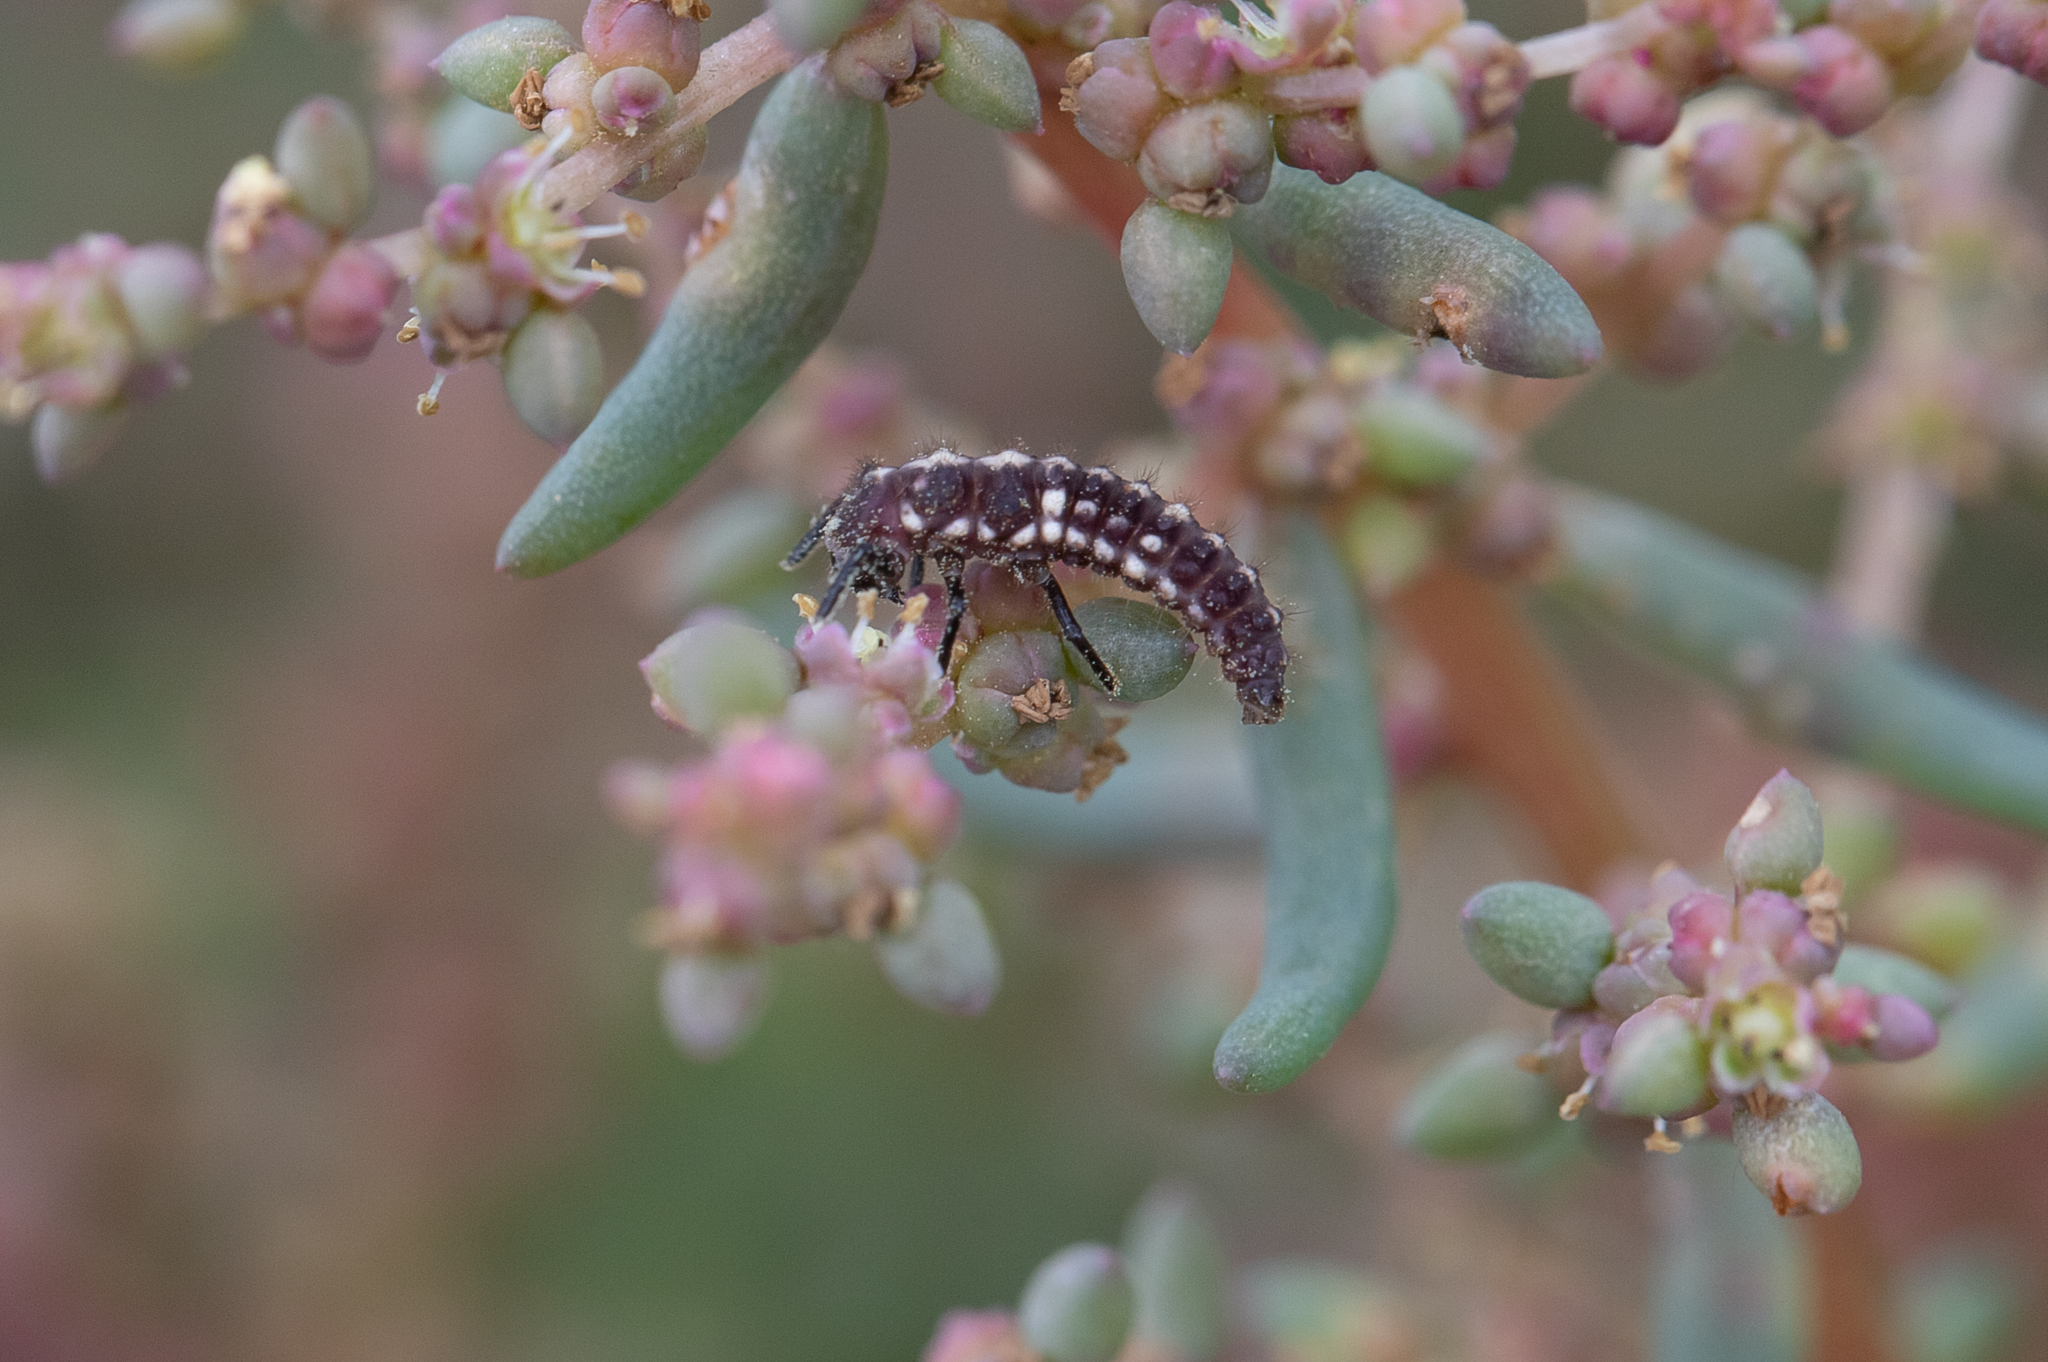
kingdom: Animalia
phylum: Arthropoda
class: Insecta
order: Coleoptera
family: Coccinellidae
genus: Micraspis
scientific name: Micraspis frenata
